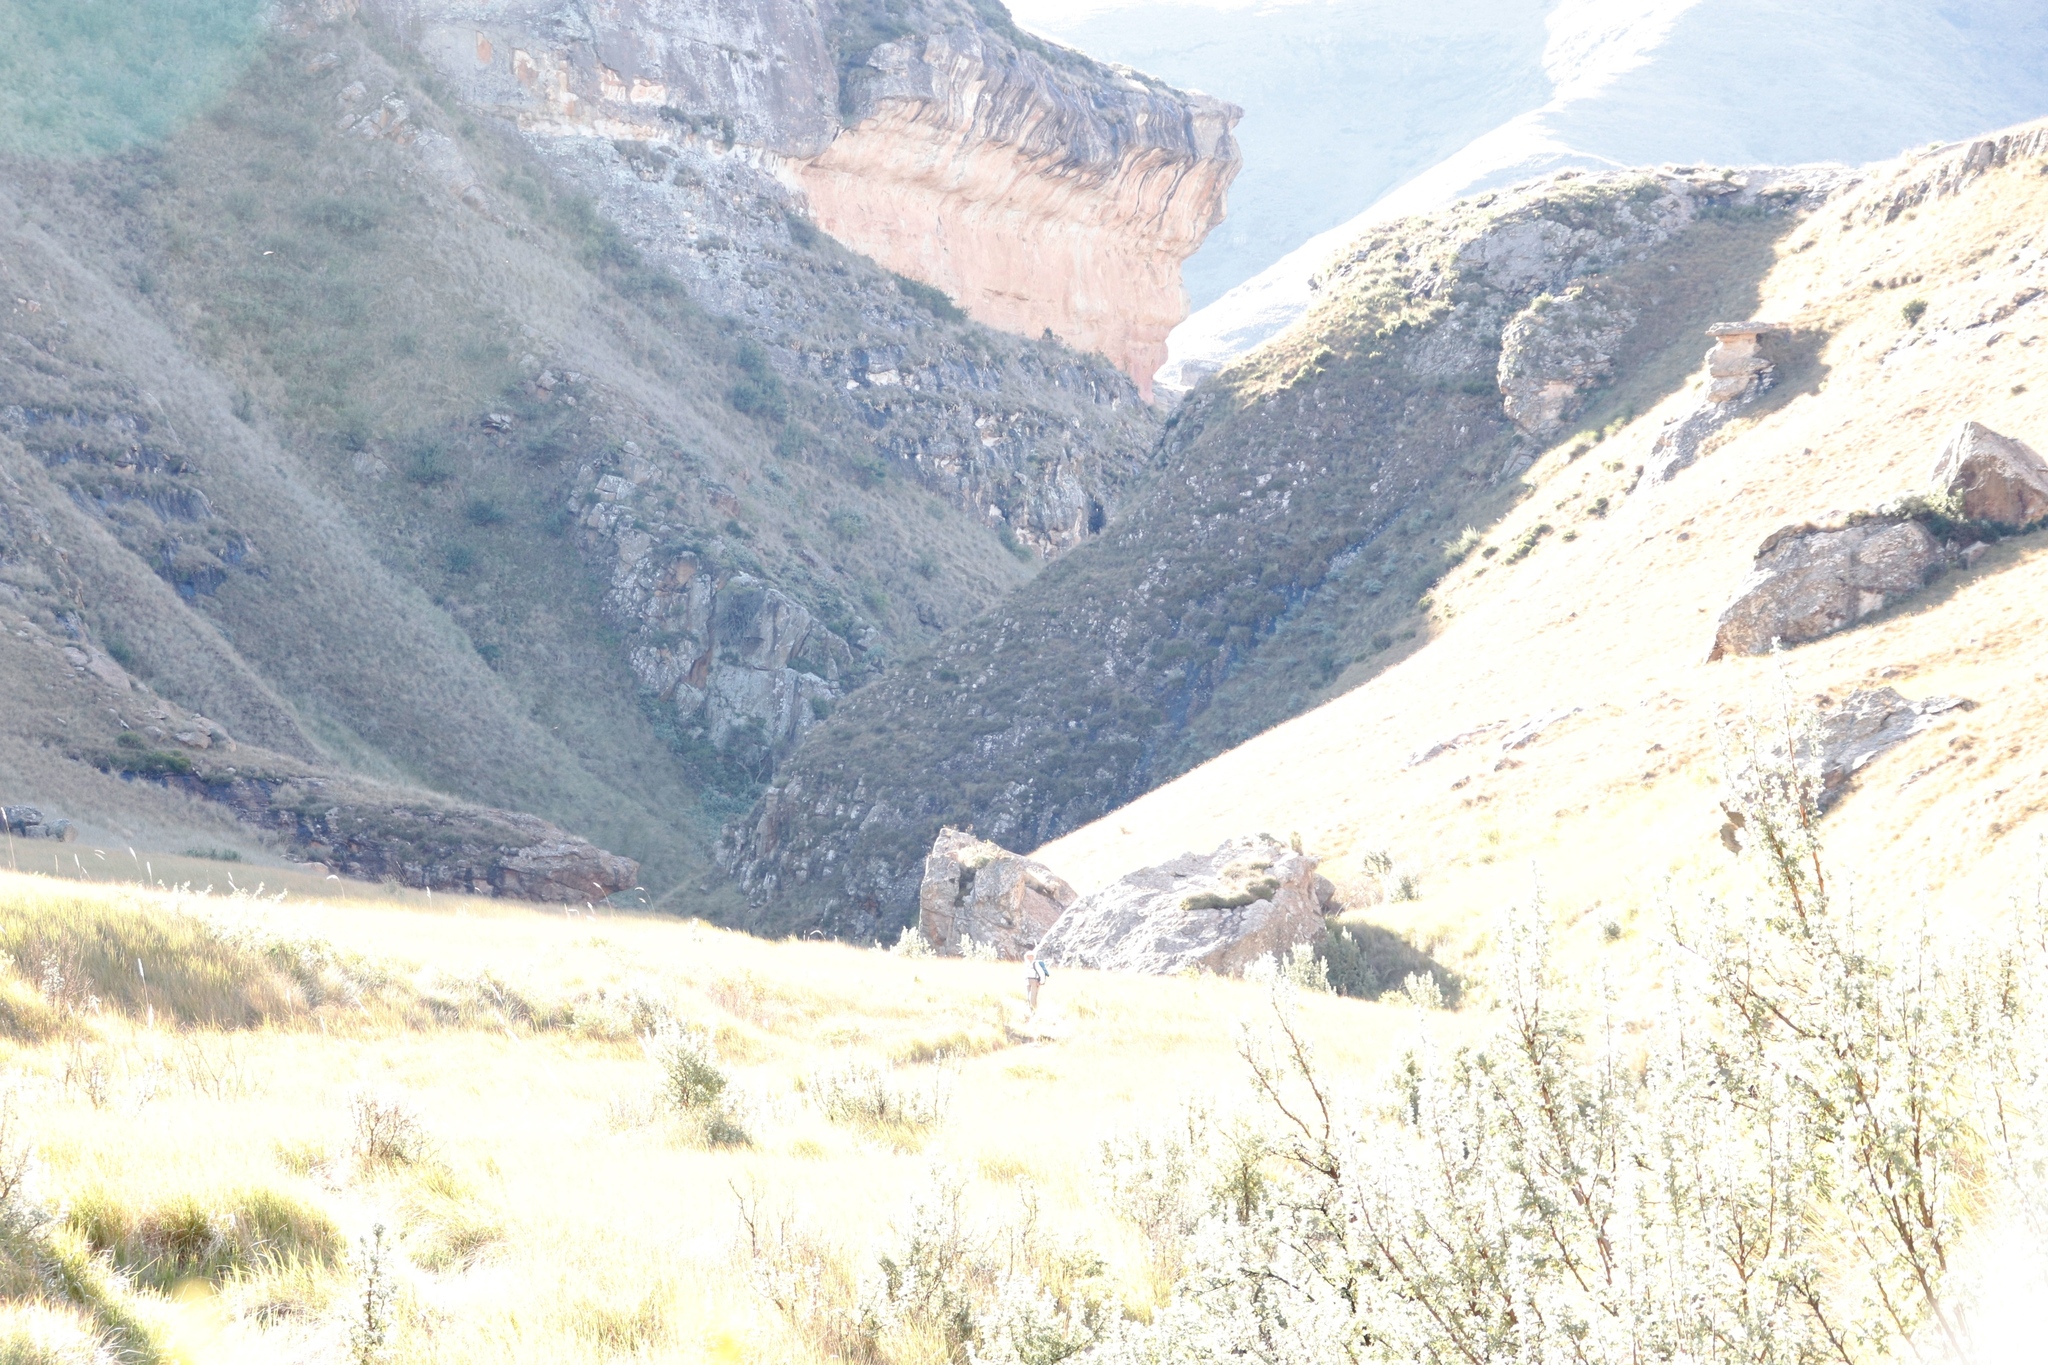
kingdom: Plantae
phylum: Tracheophyta
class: Magnoliopsida
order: Rosales
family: Rosaceae
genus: Leucosidea
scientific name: Leucosidea sericea
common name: Oldwood
